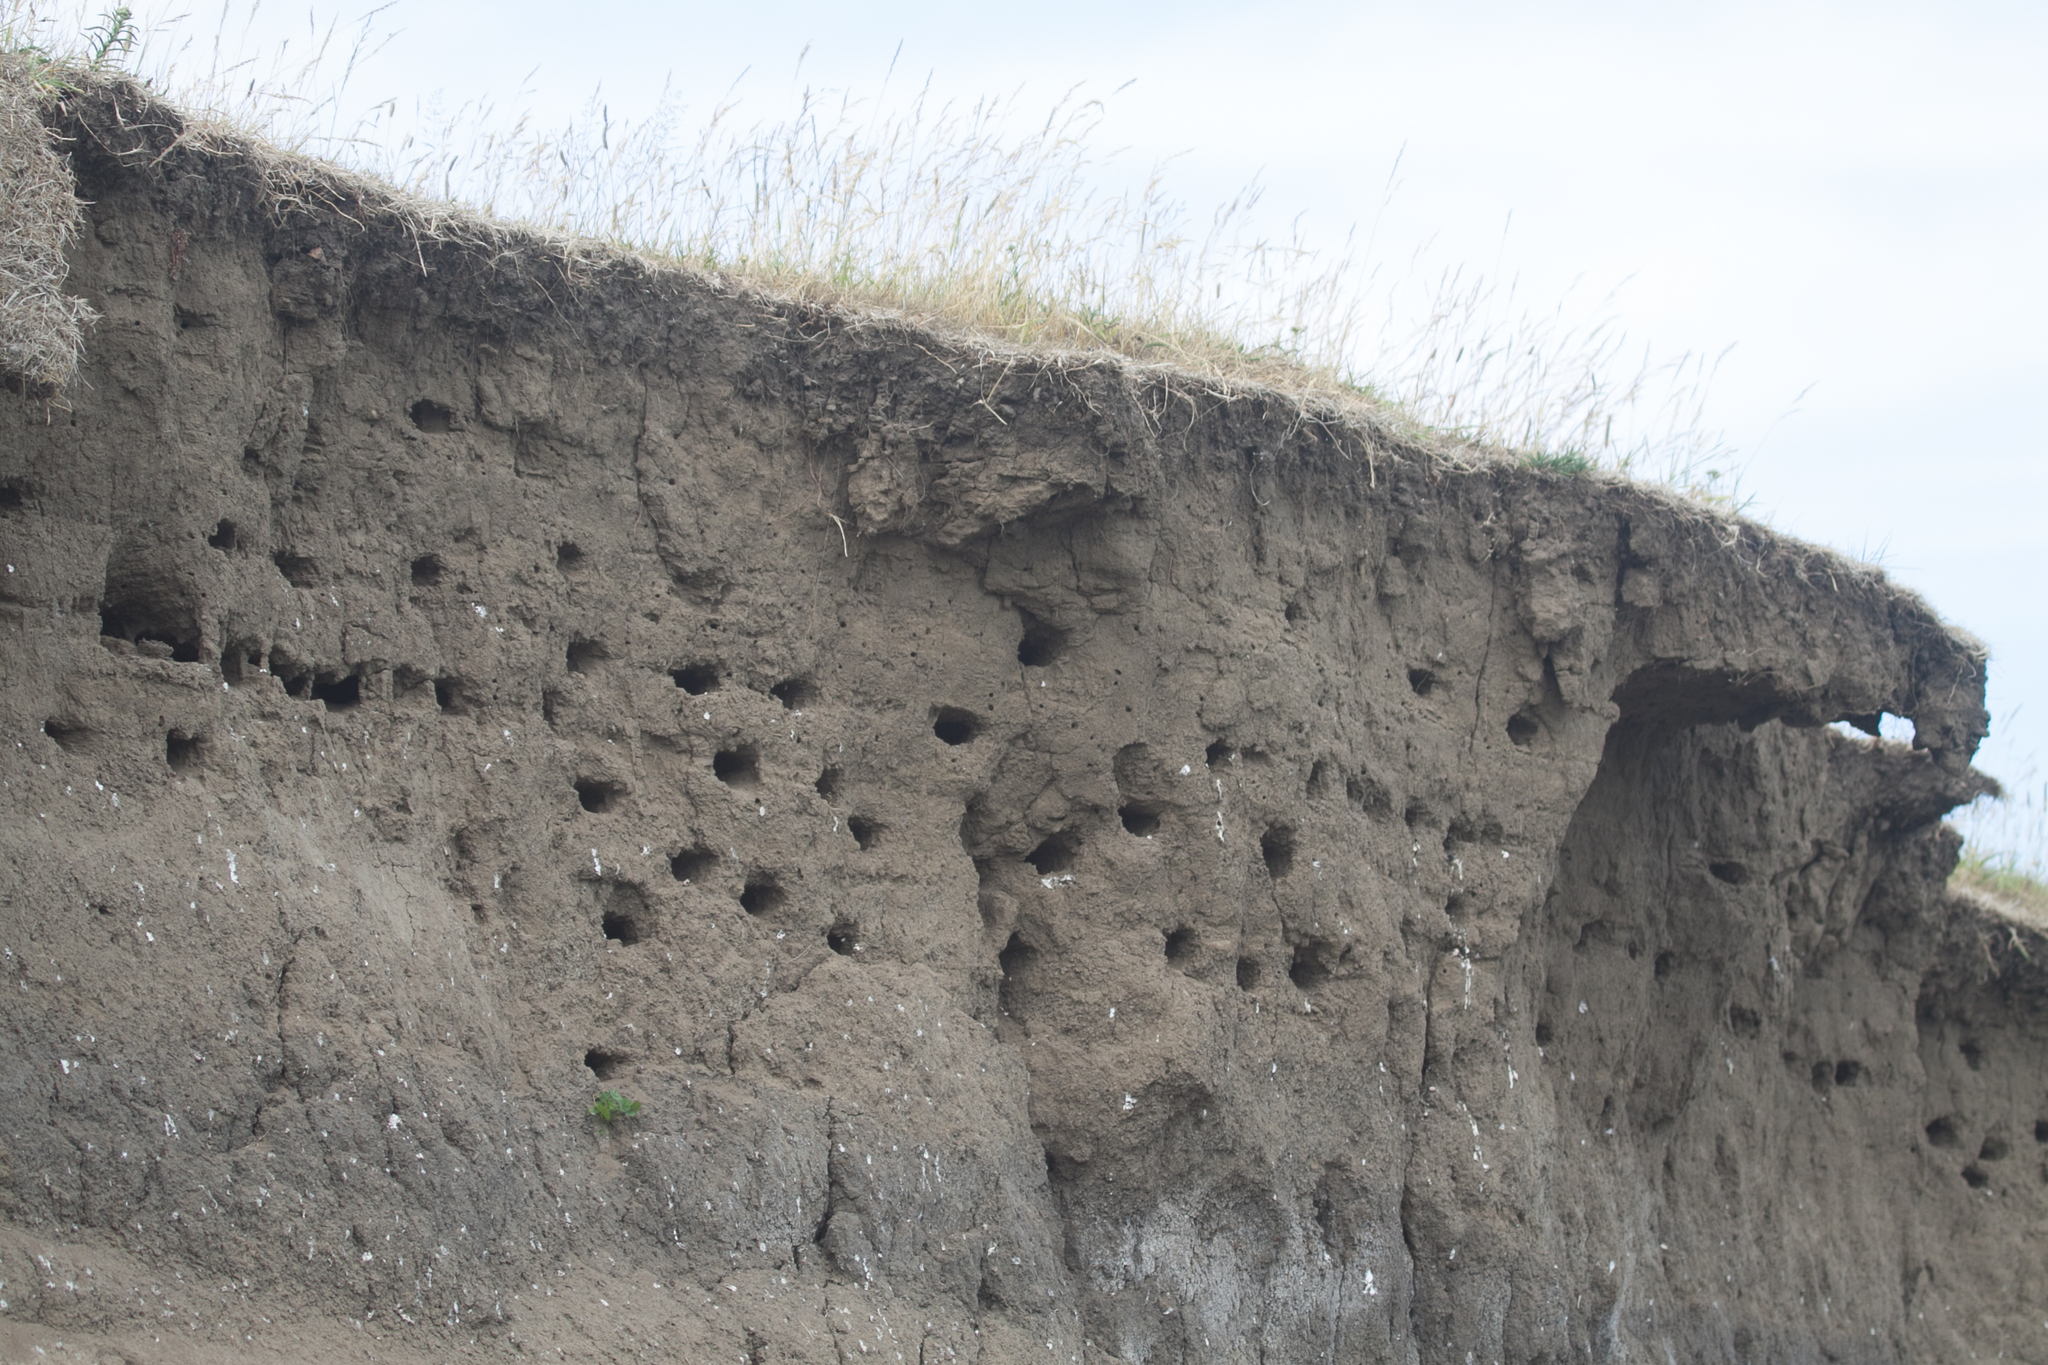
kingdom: Animalia
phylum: Chordata
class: Aves
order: Passeriformes
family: Hirundinidae
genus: Riparia
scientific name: Riparia riparia
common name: Sand martin
